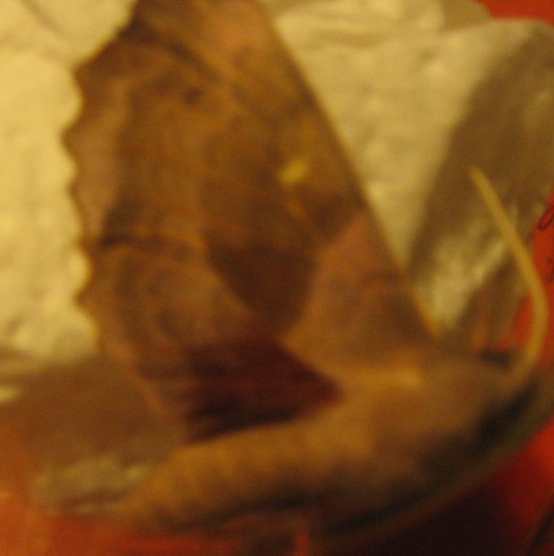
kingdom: Animalia
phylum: Arthropoda
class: Insecta
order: Lepidoptera
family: Sphingidae
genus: Laothoe
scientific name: Laothoe populi
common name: Poplar hawk-moth
